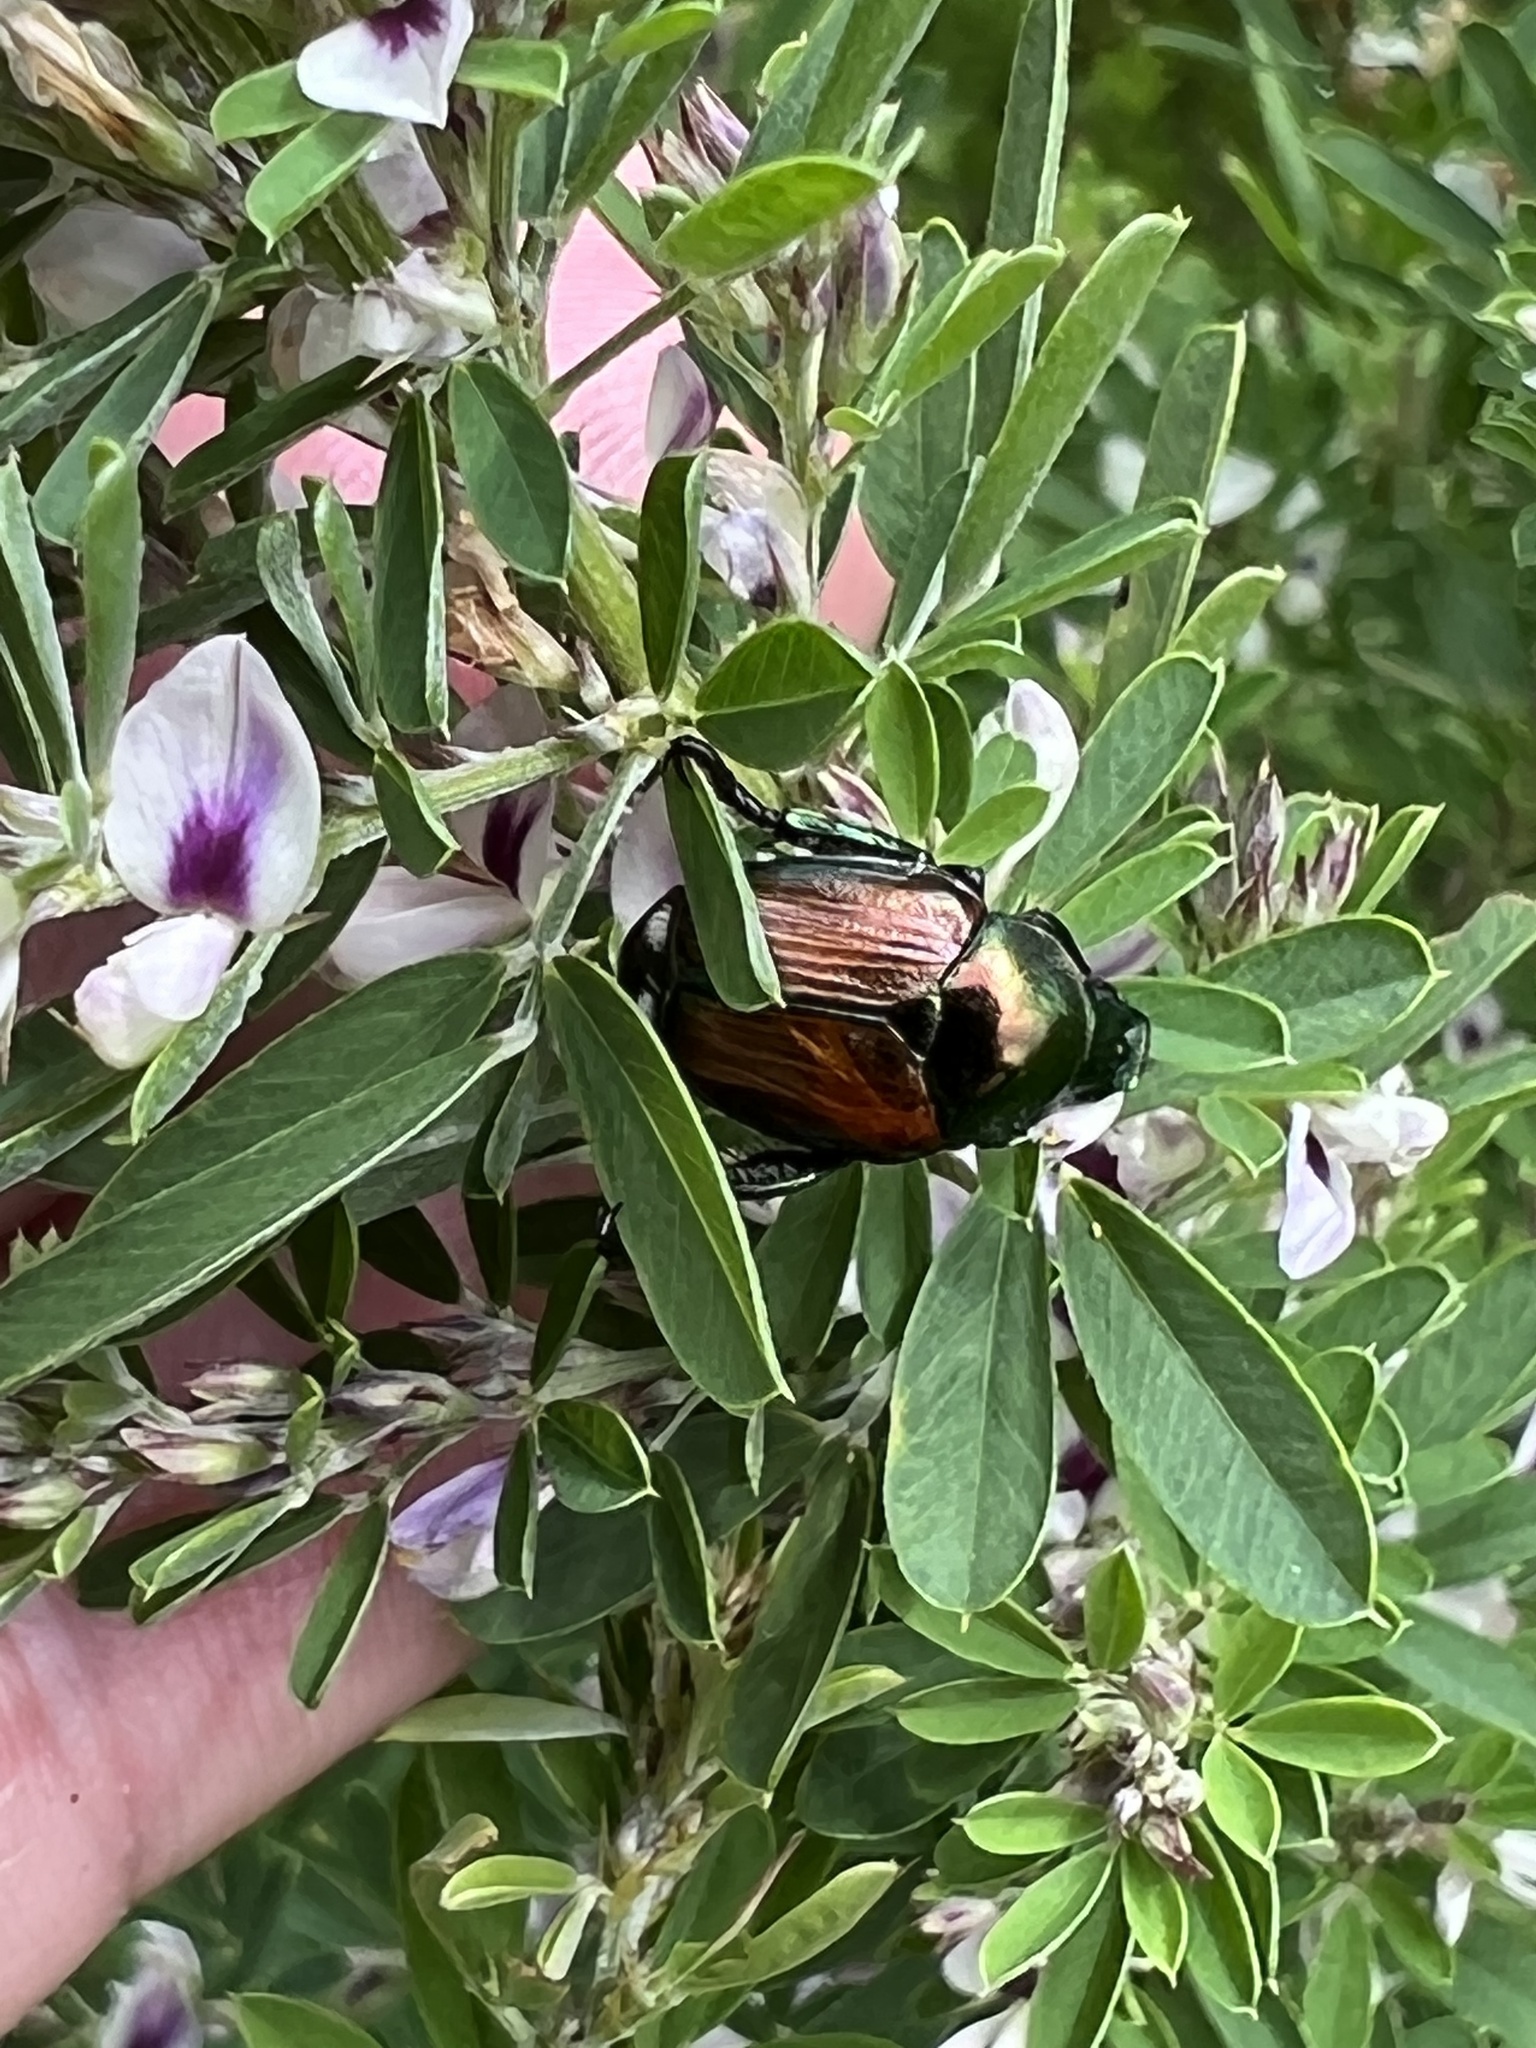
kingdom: Animalia
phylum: Arthropoda
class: Insecta
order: Coleoptera
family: Scarabaeidae
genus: Popillia
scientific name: Popillia japonica
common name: Japanese beetle
